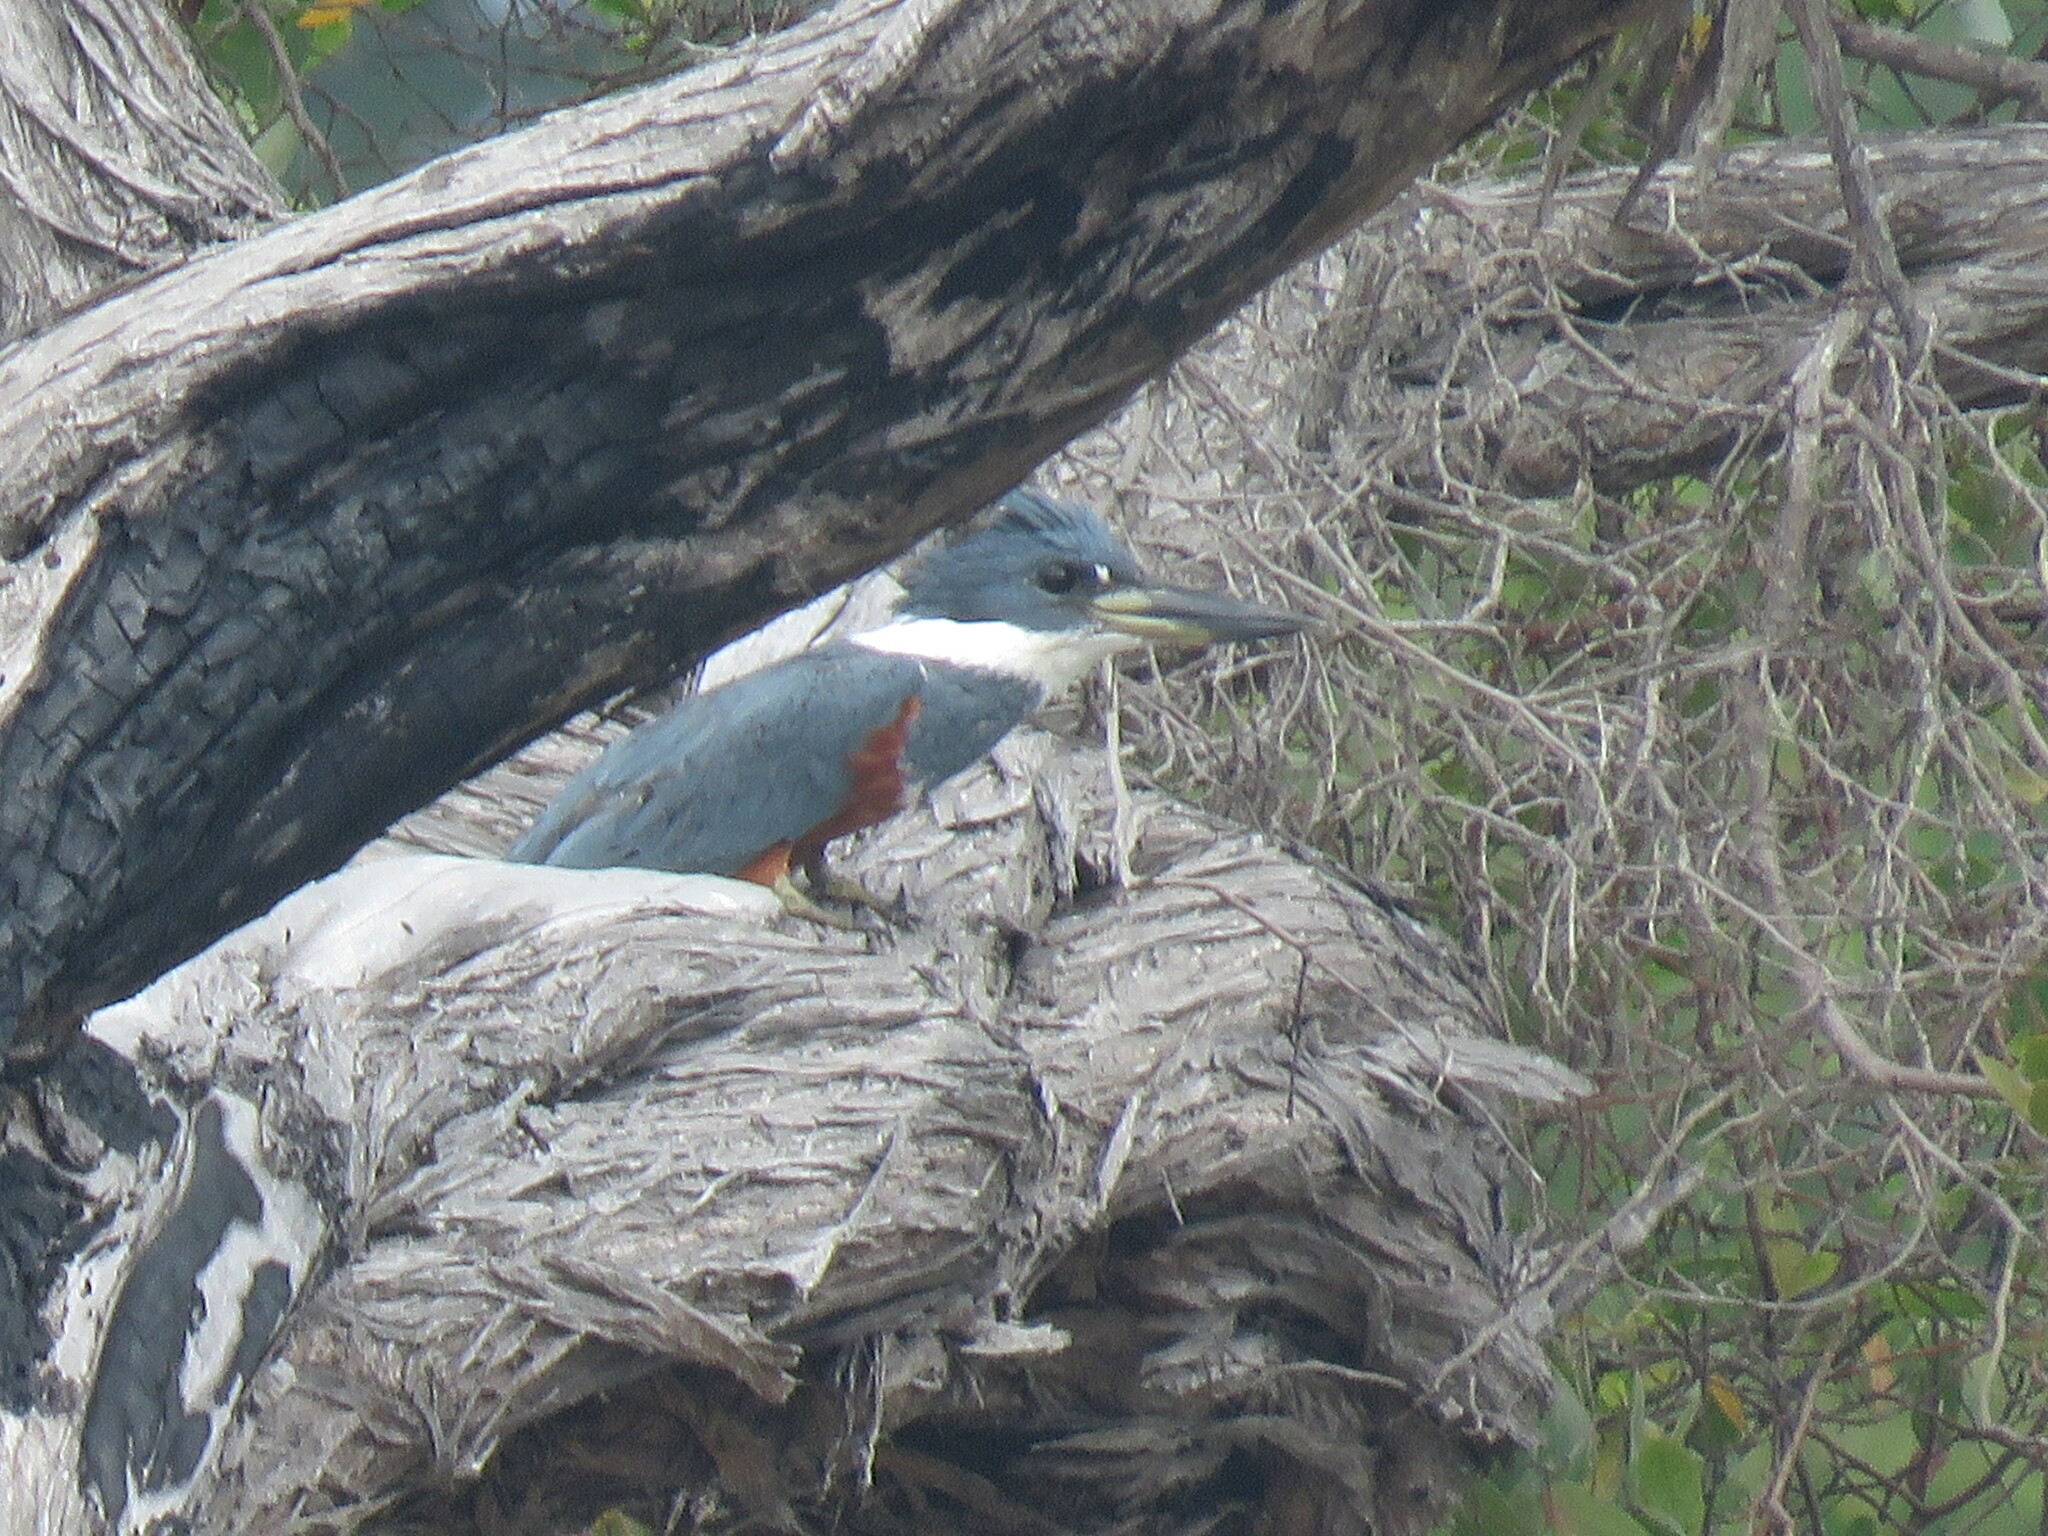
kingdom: Animalia
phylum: Chordata
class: Aves
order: Coraciiformes
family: Alcedinidae
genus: Megaceryle
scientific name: Megaceryle torquata
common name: Ringed kingfisher
